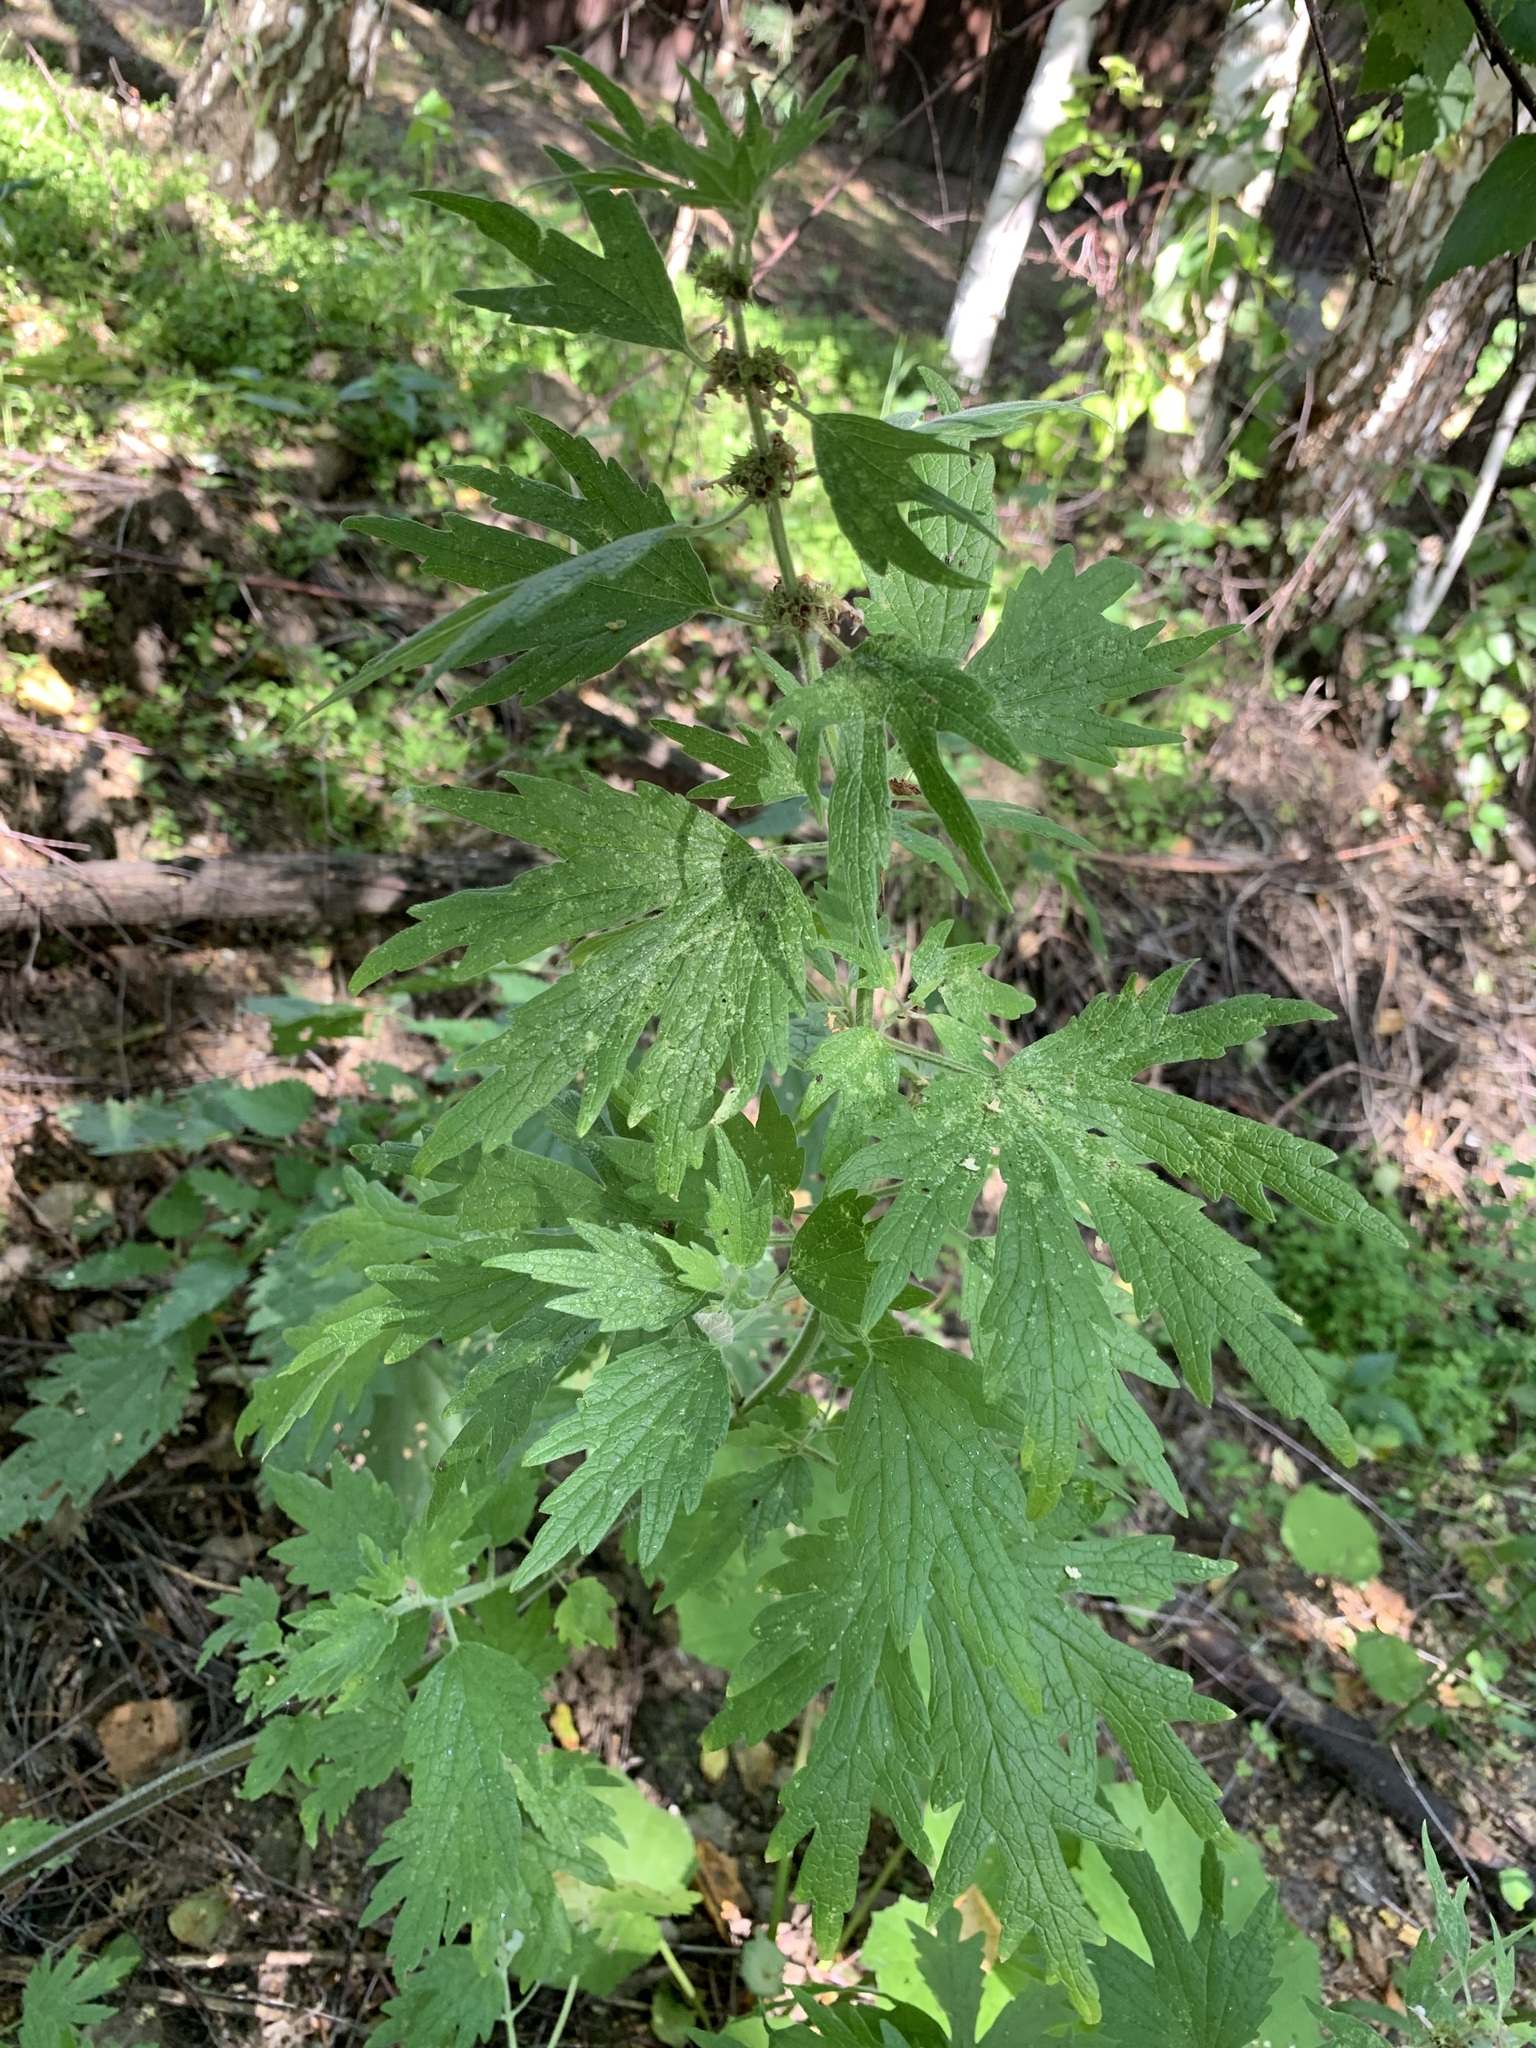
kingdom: Plantae
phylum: Tracheophyta
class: Magnoliopsida
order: Lamiales
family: Lamiaceae
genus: Leonurus
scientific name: Leonurus quinquelobatus
